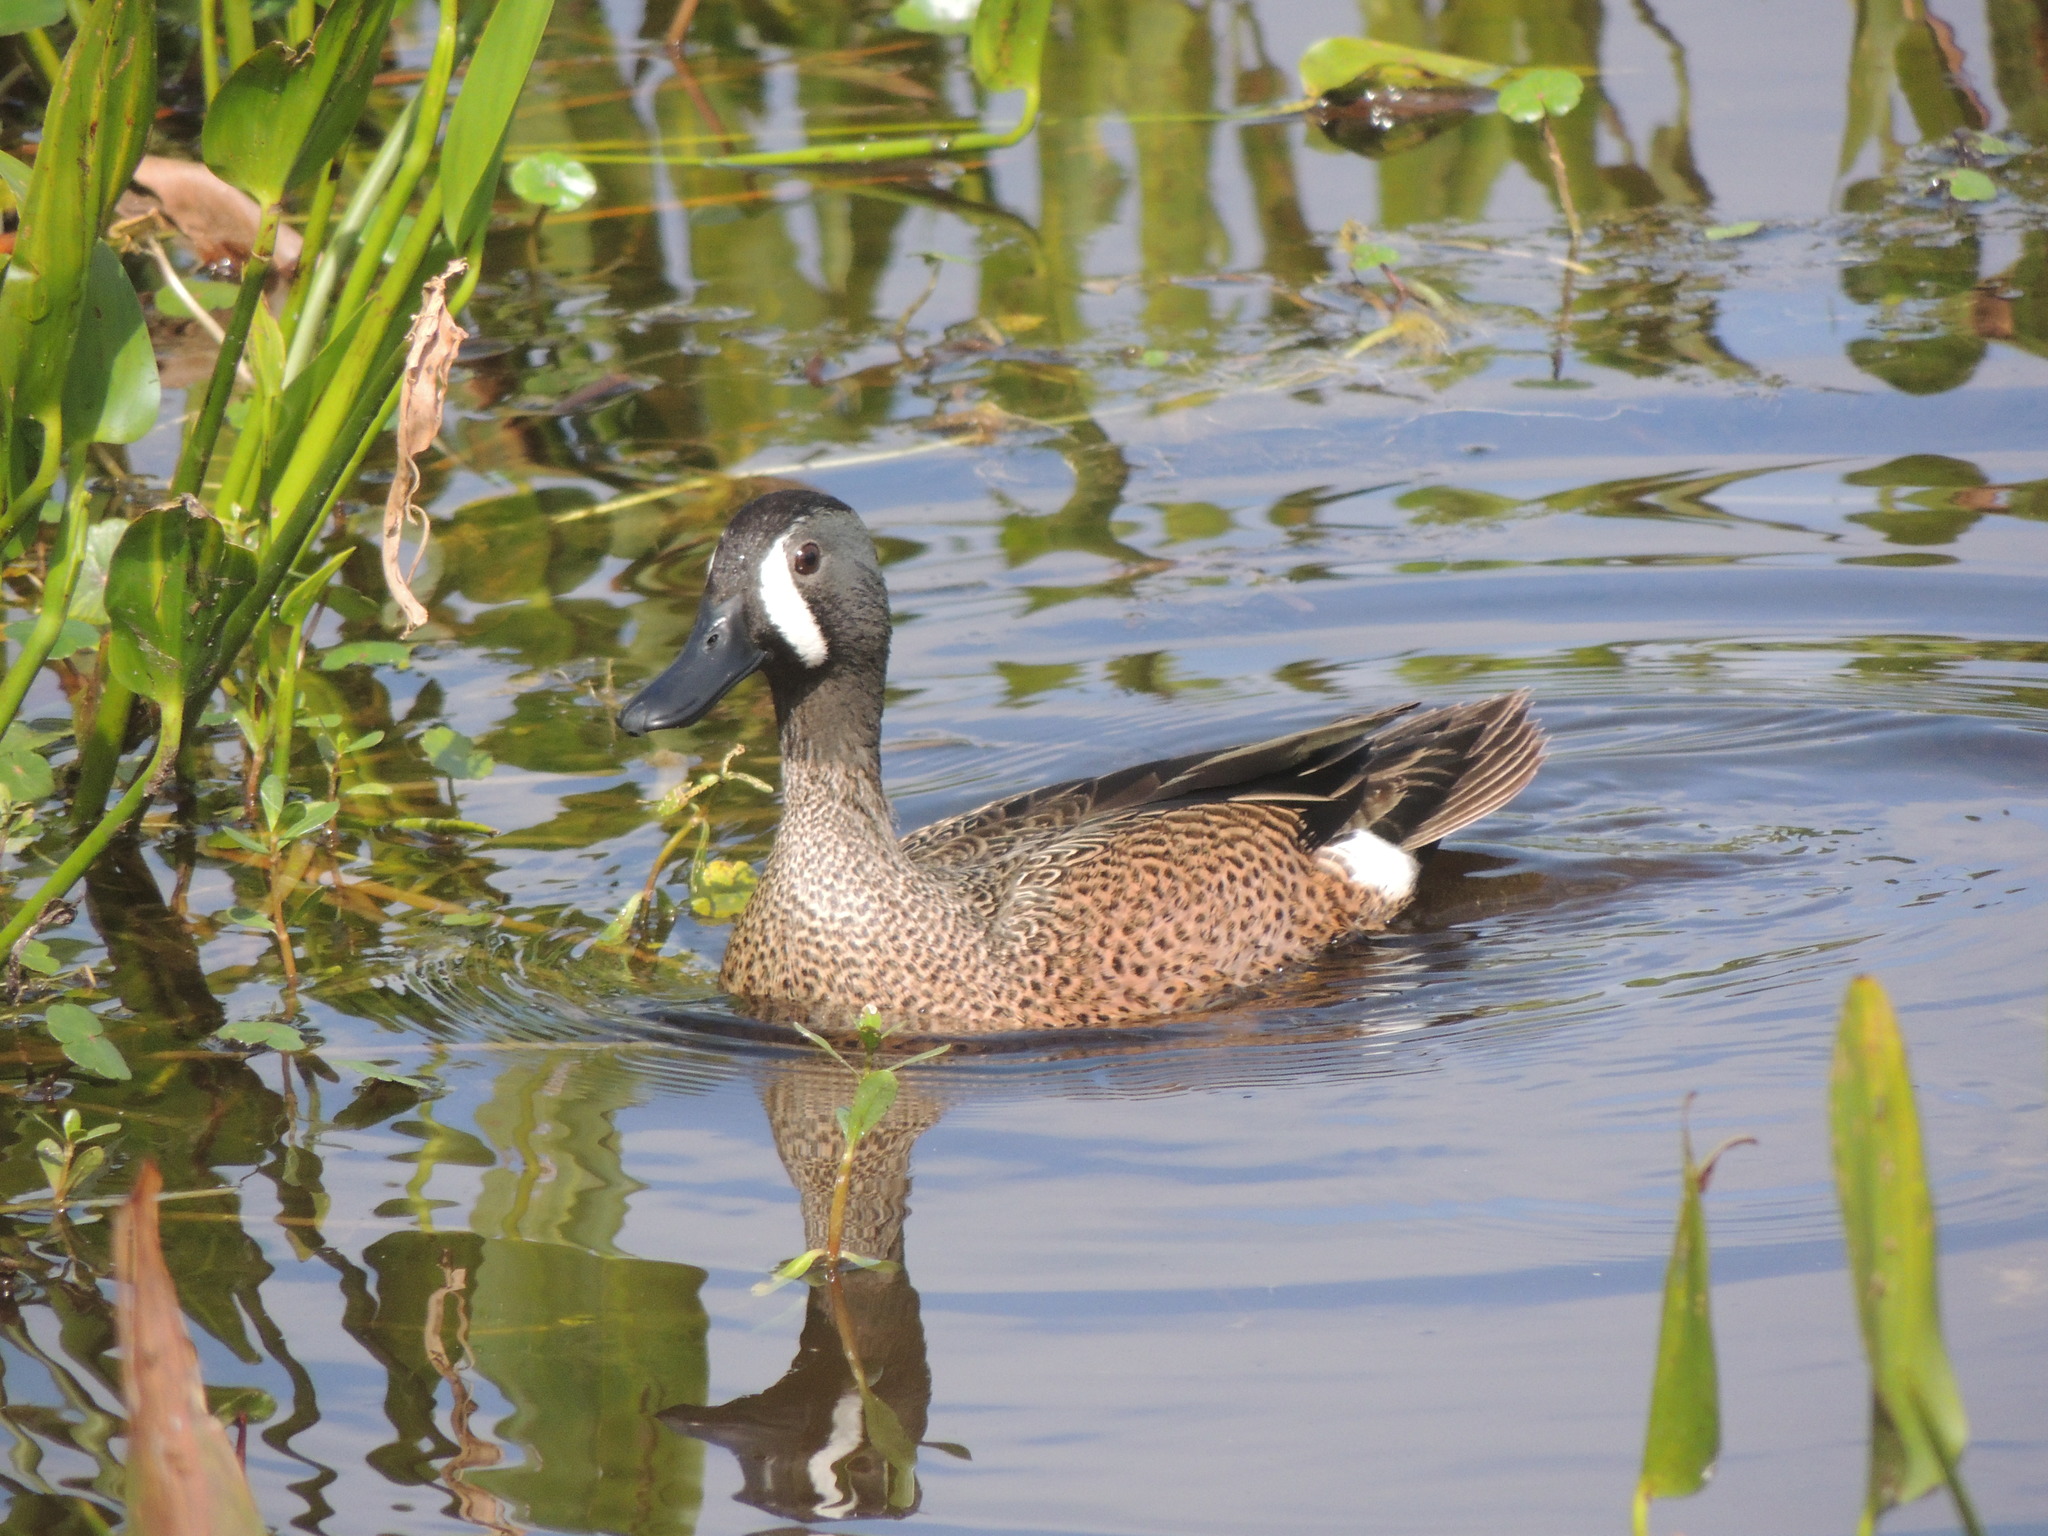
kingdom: Animalia
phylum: Chordata
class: Aves
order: Anseriformes
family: Anatidae
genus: Spatula
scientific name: Spatula discors
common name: Blue-winged teal
